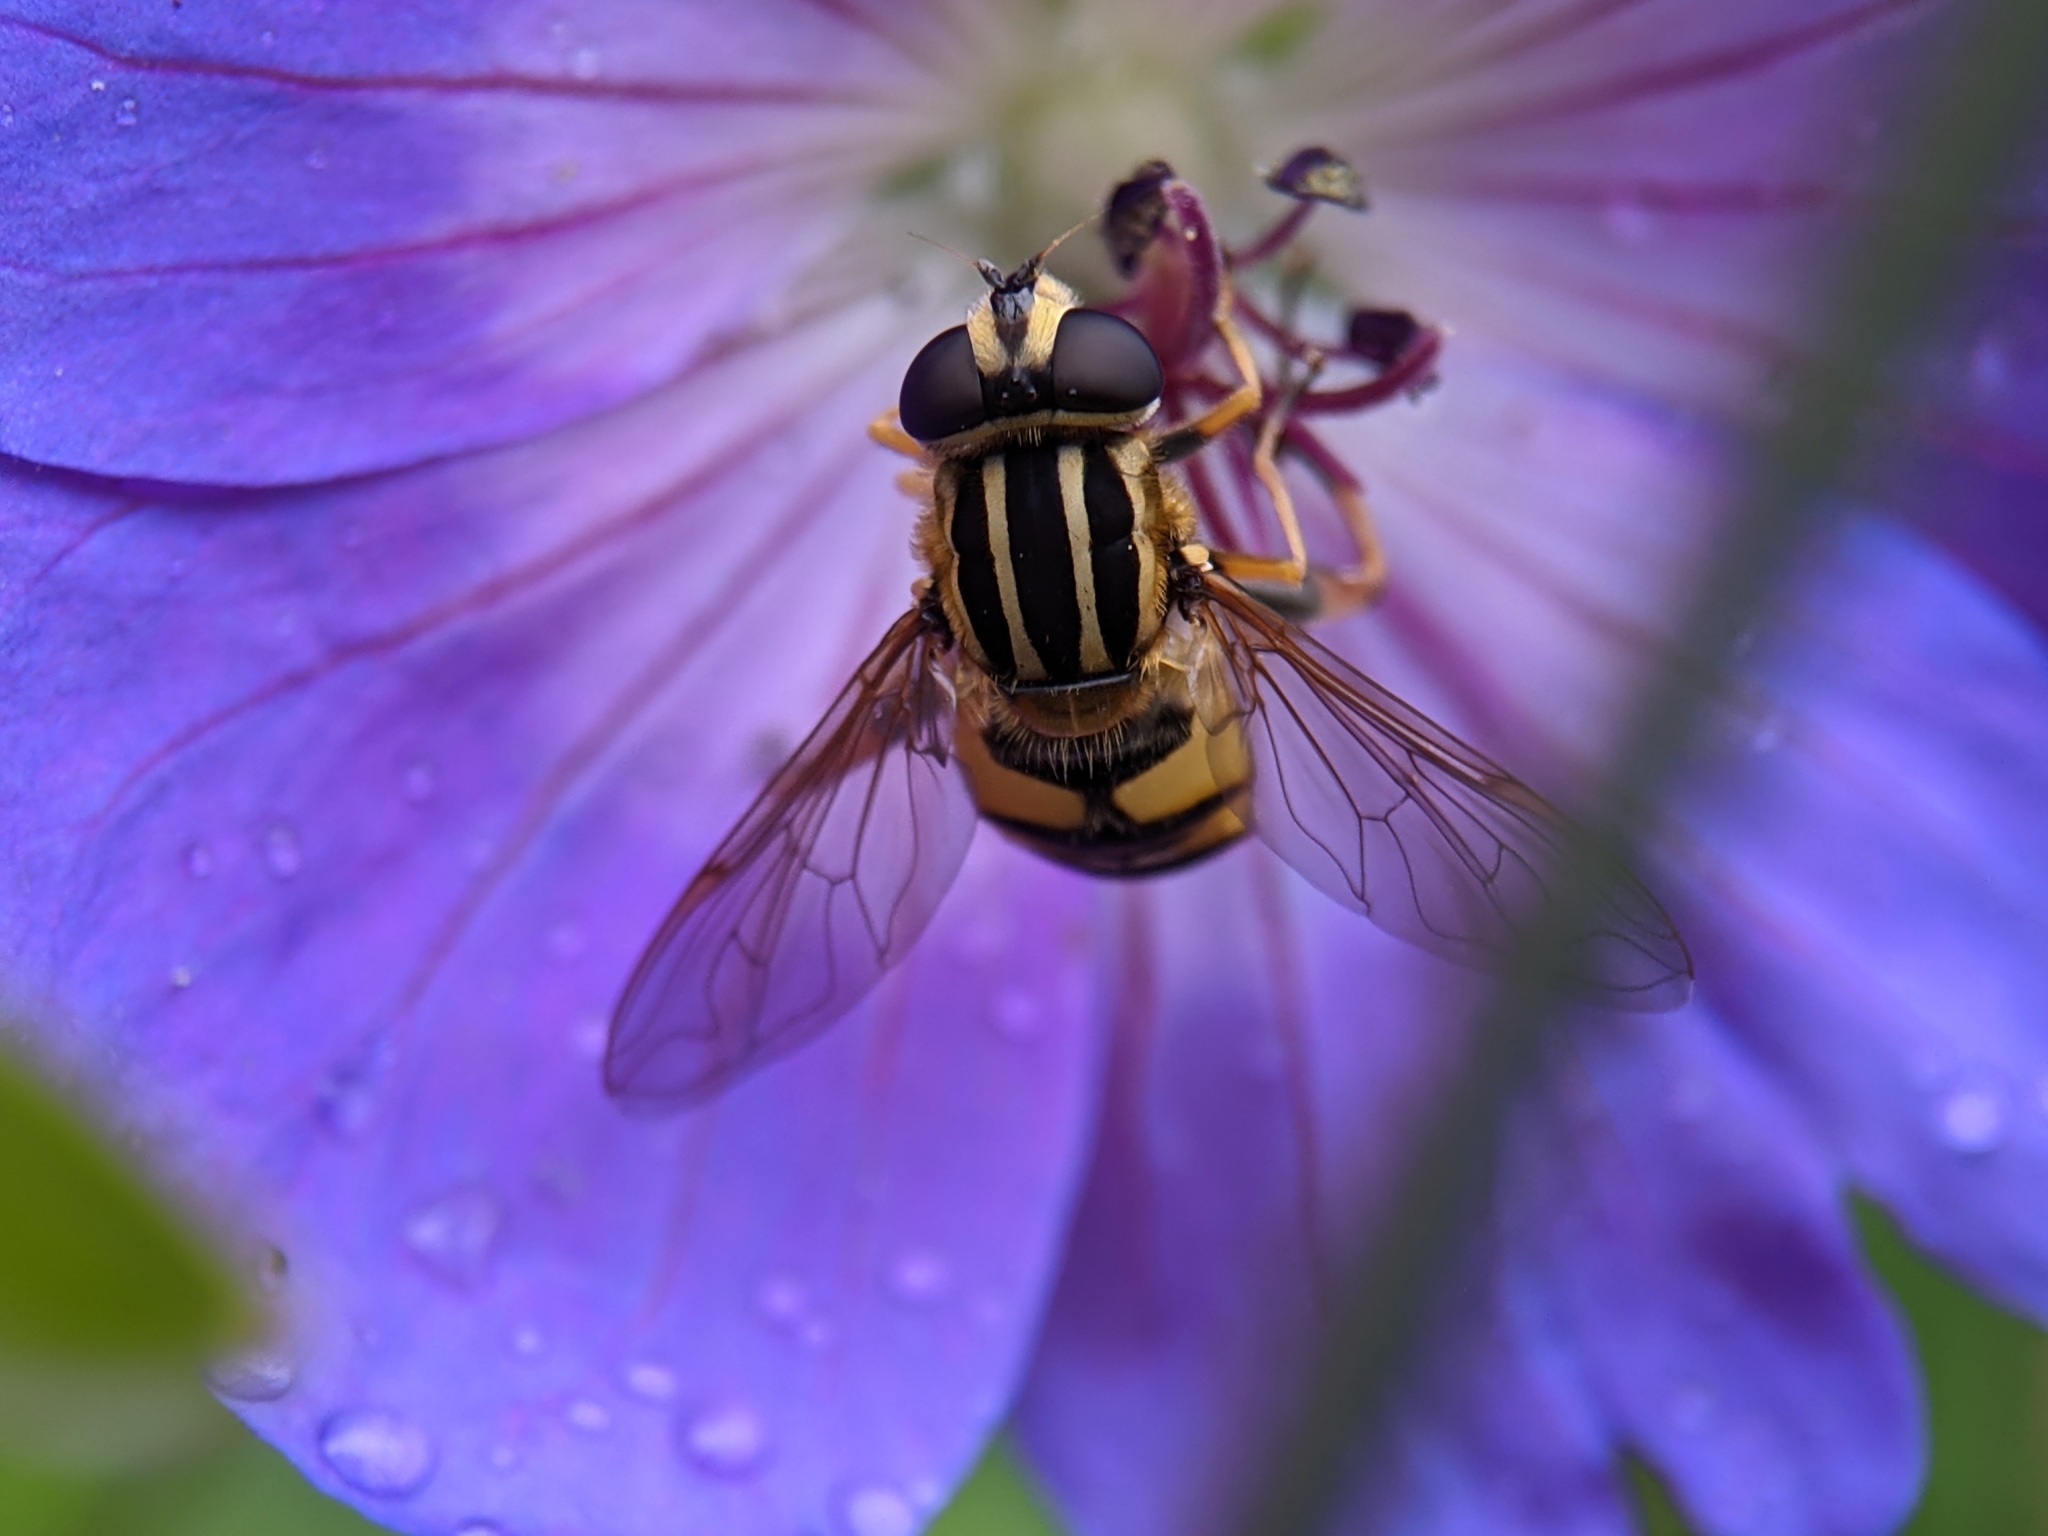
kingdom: Animalia
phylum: Arthropoda
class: Insecta
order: Diptera
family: Syrphidae
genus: Helophilus
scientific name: Helophilus pendulus
